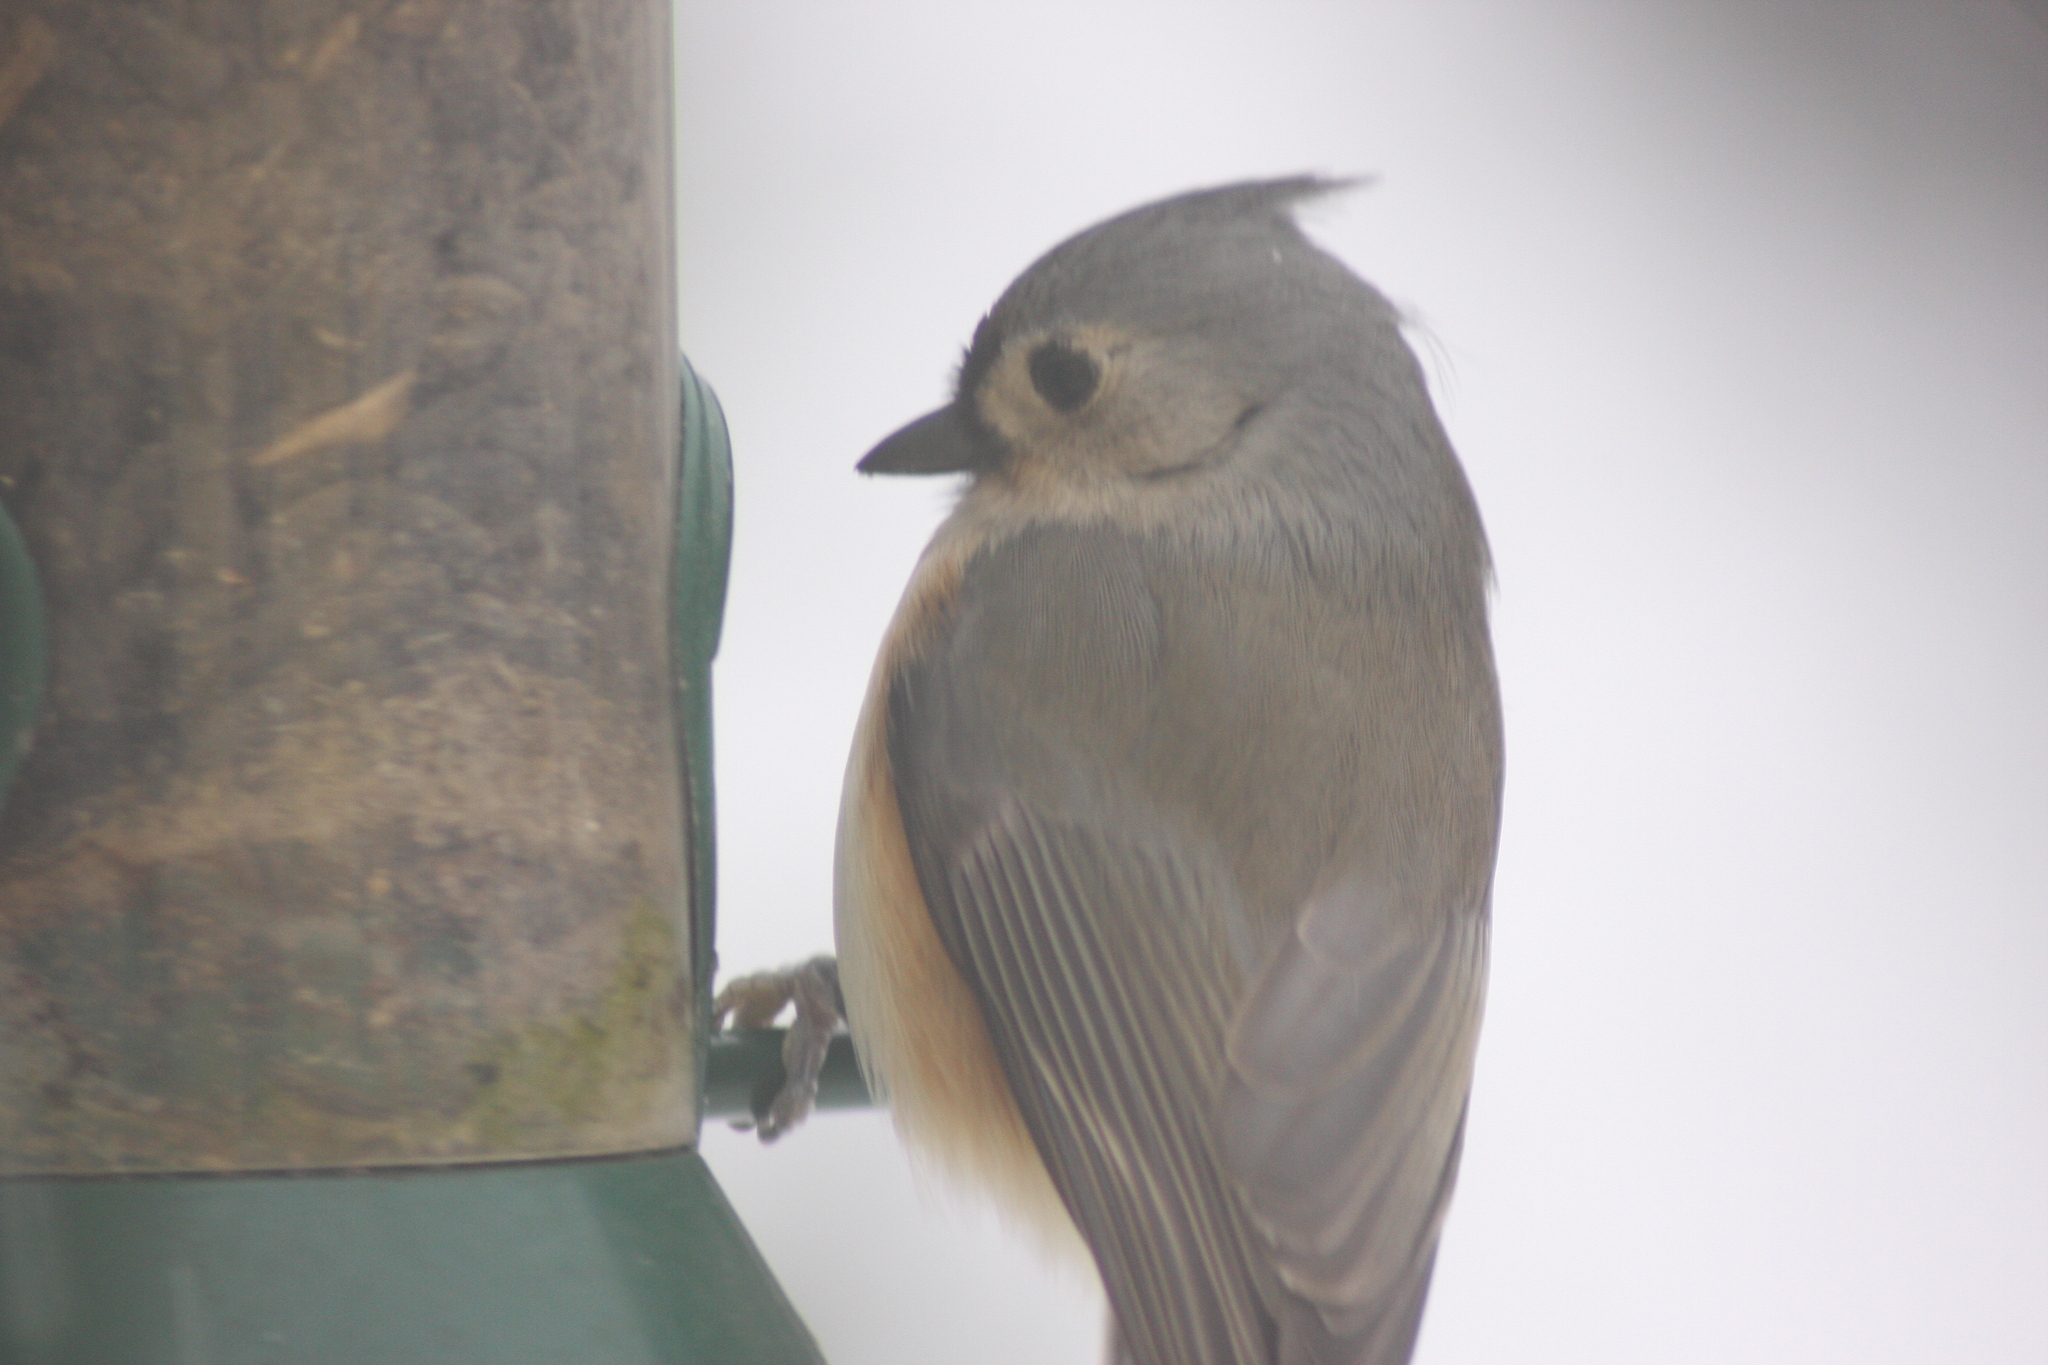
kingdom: Animalia
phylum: Chordata
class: Aves
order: Passeriformes
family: Paridae
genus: Baeolophus
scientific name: Baeolophus bicolor
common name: Tufted titmouse
